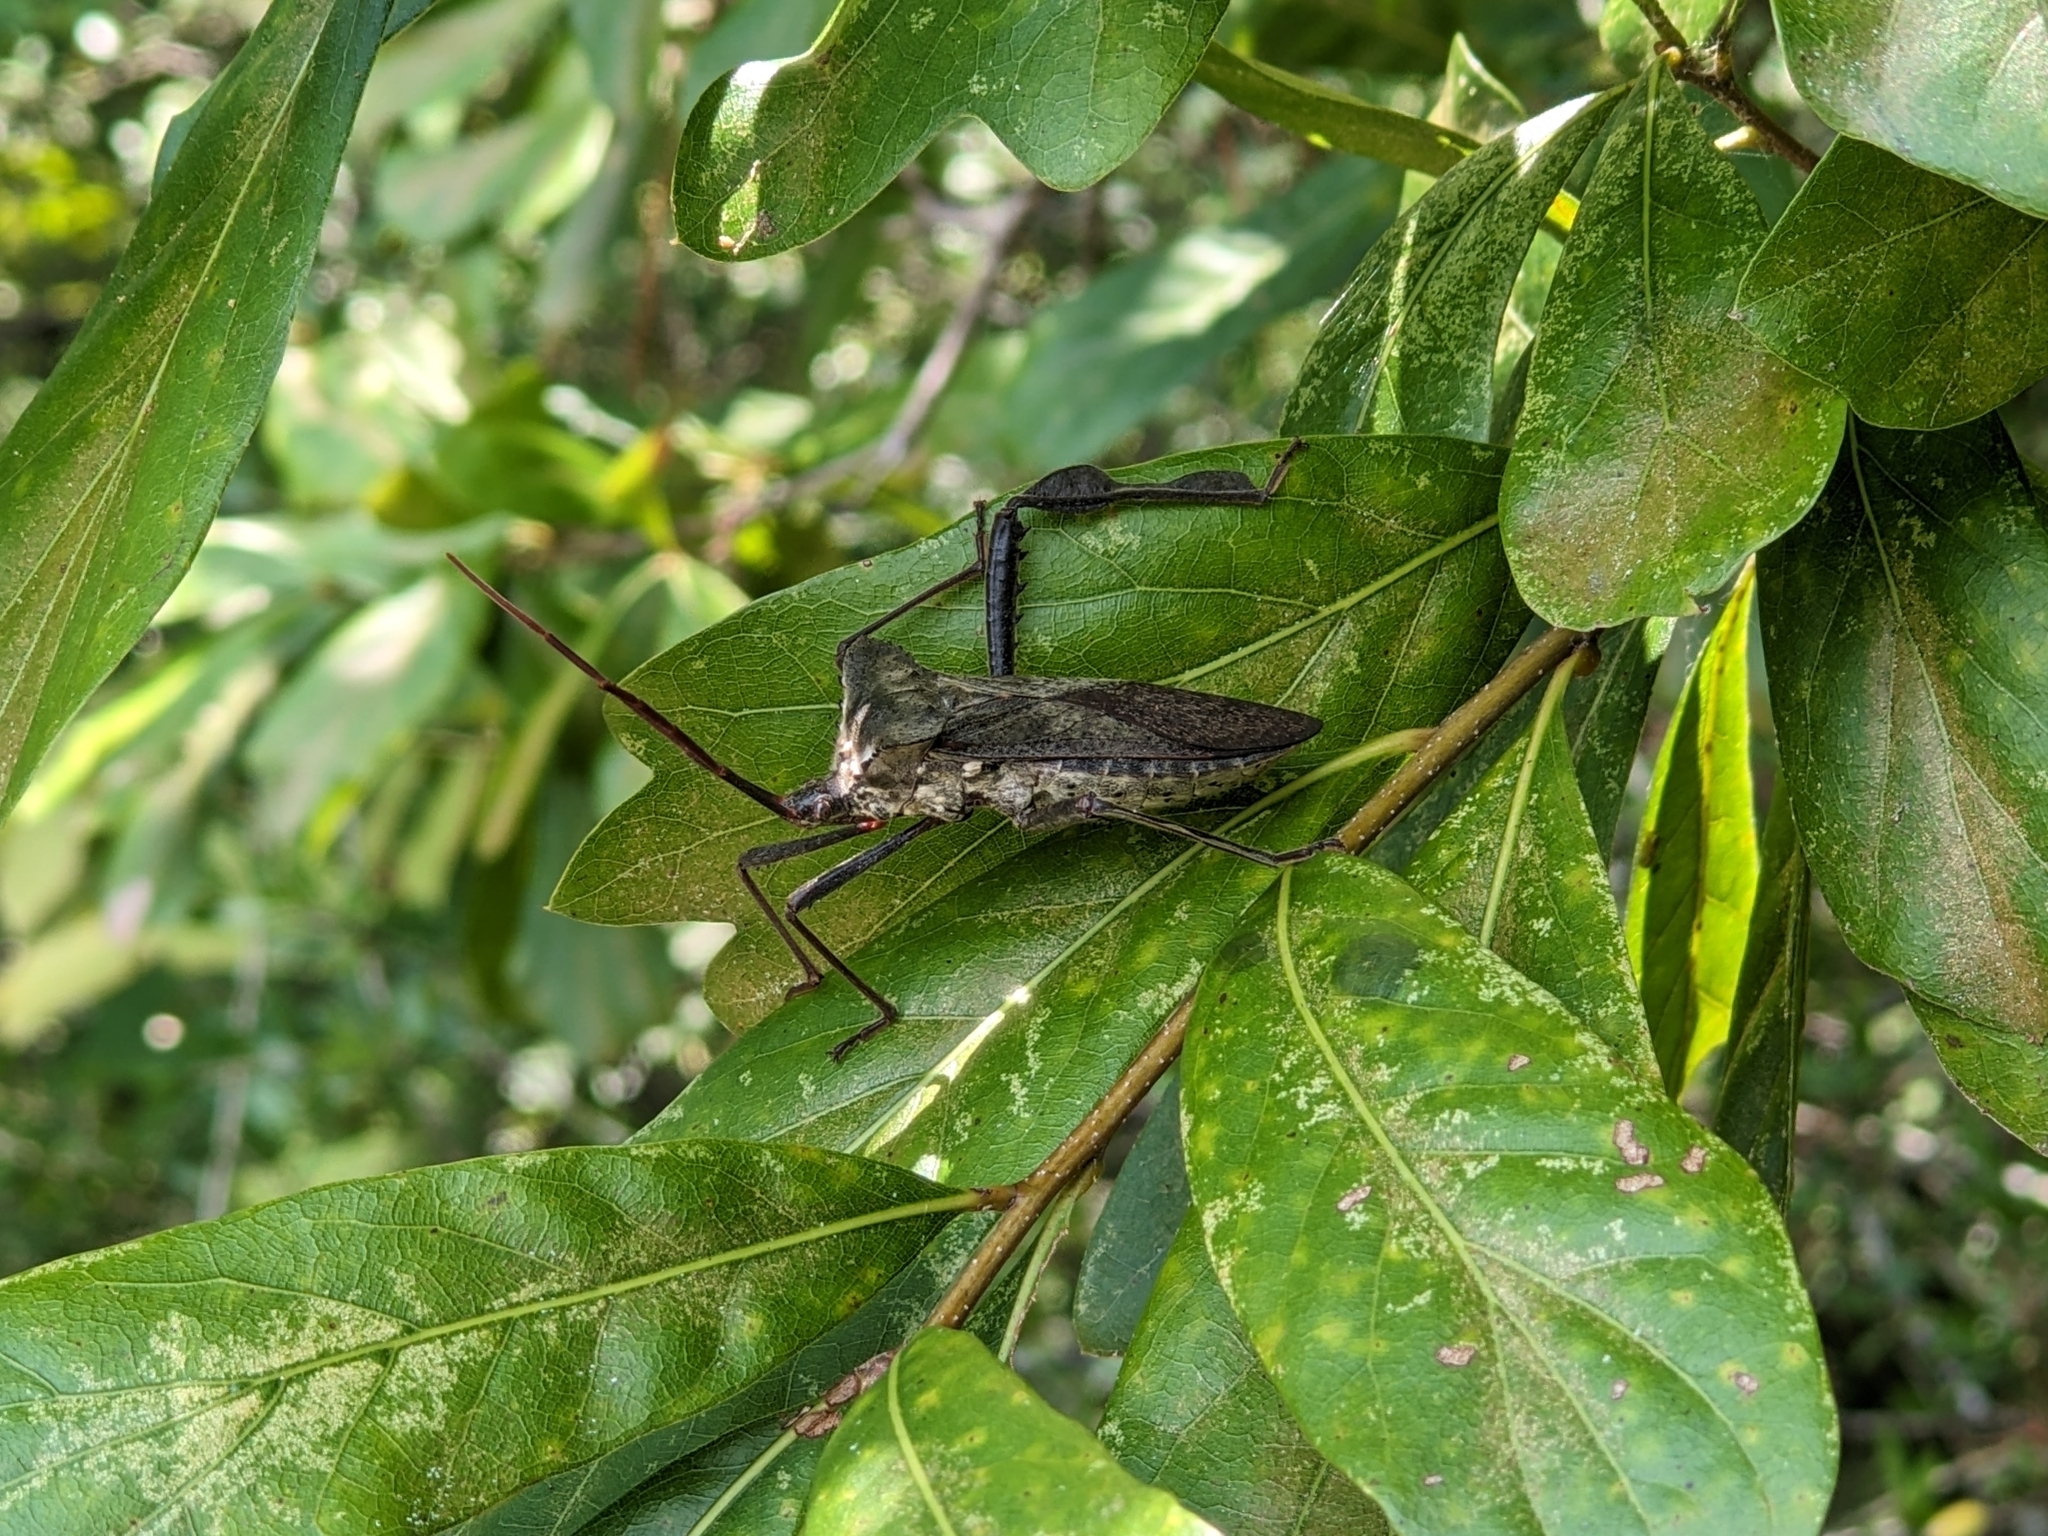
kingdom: Animalia
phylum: Arthropoda
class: Insecta
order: Hemiptera
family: Coreidae
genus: Acanthocephala
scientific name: Acanthocephala declivis
